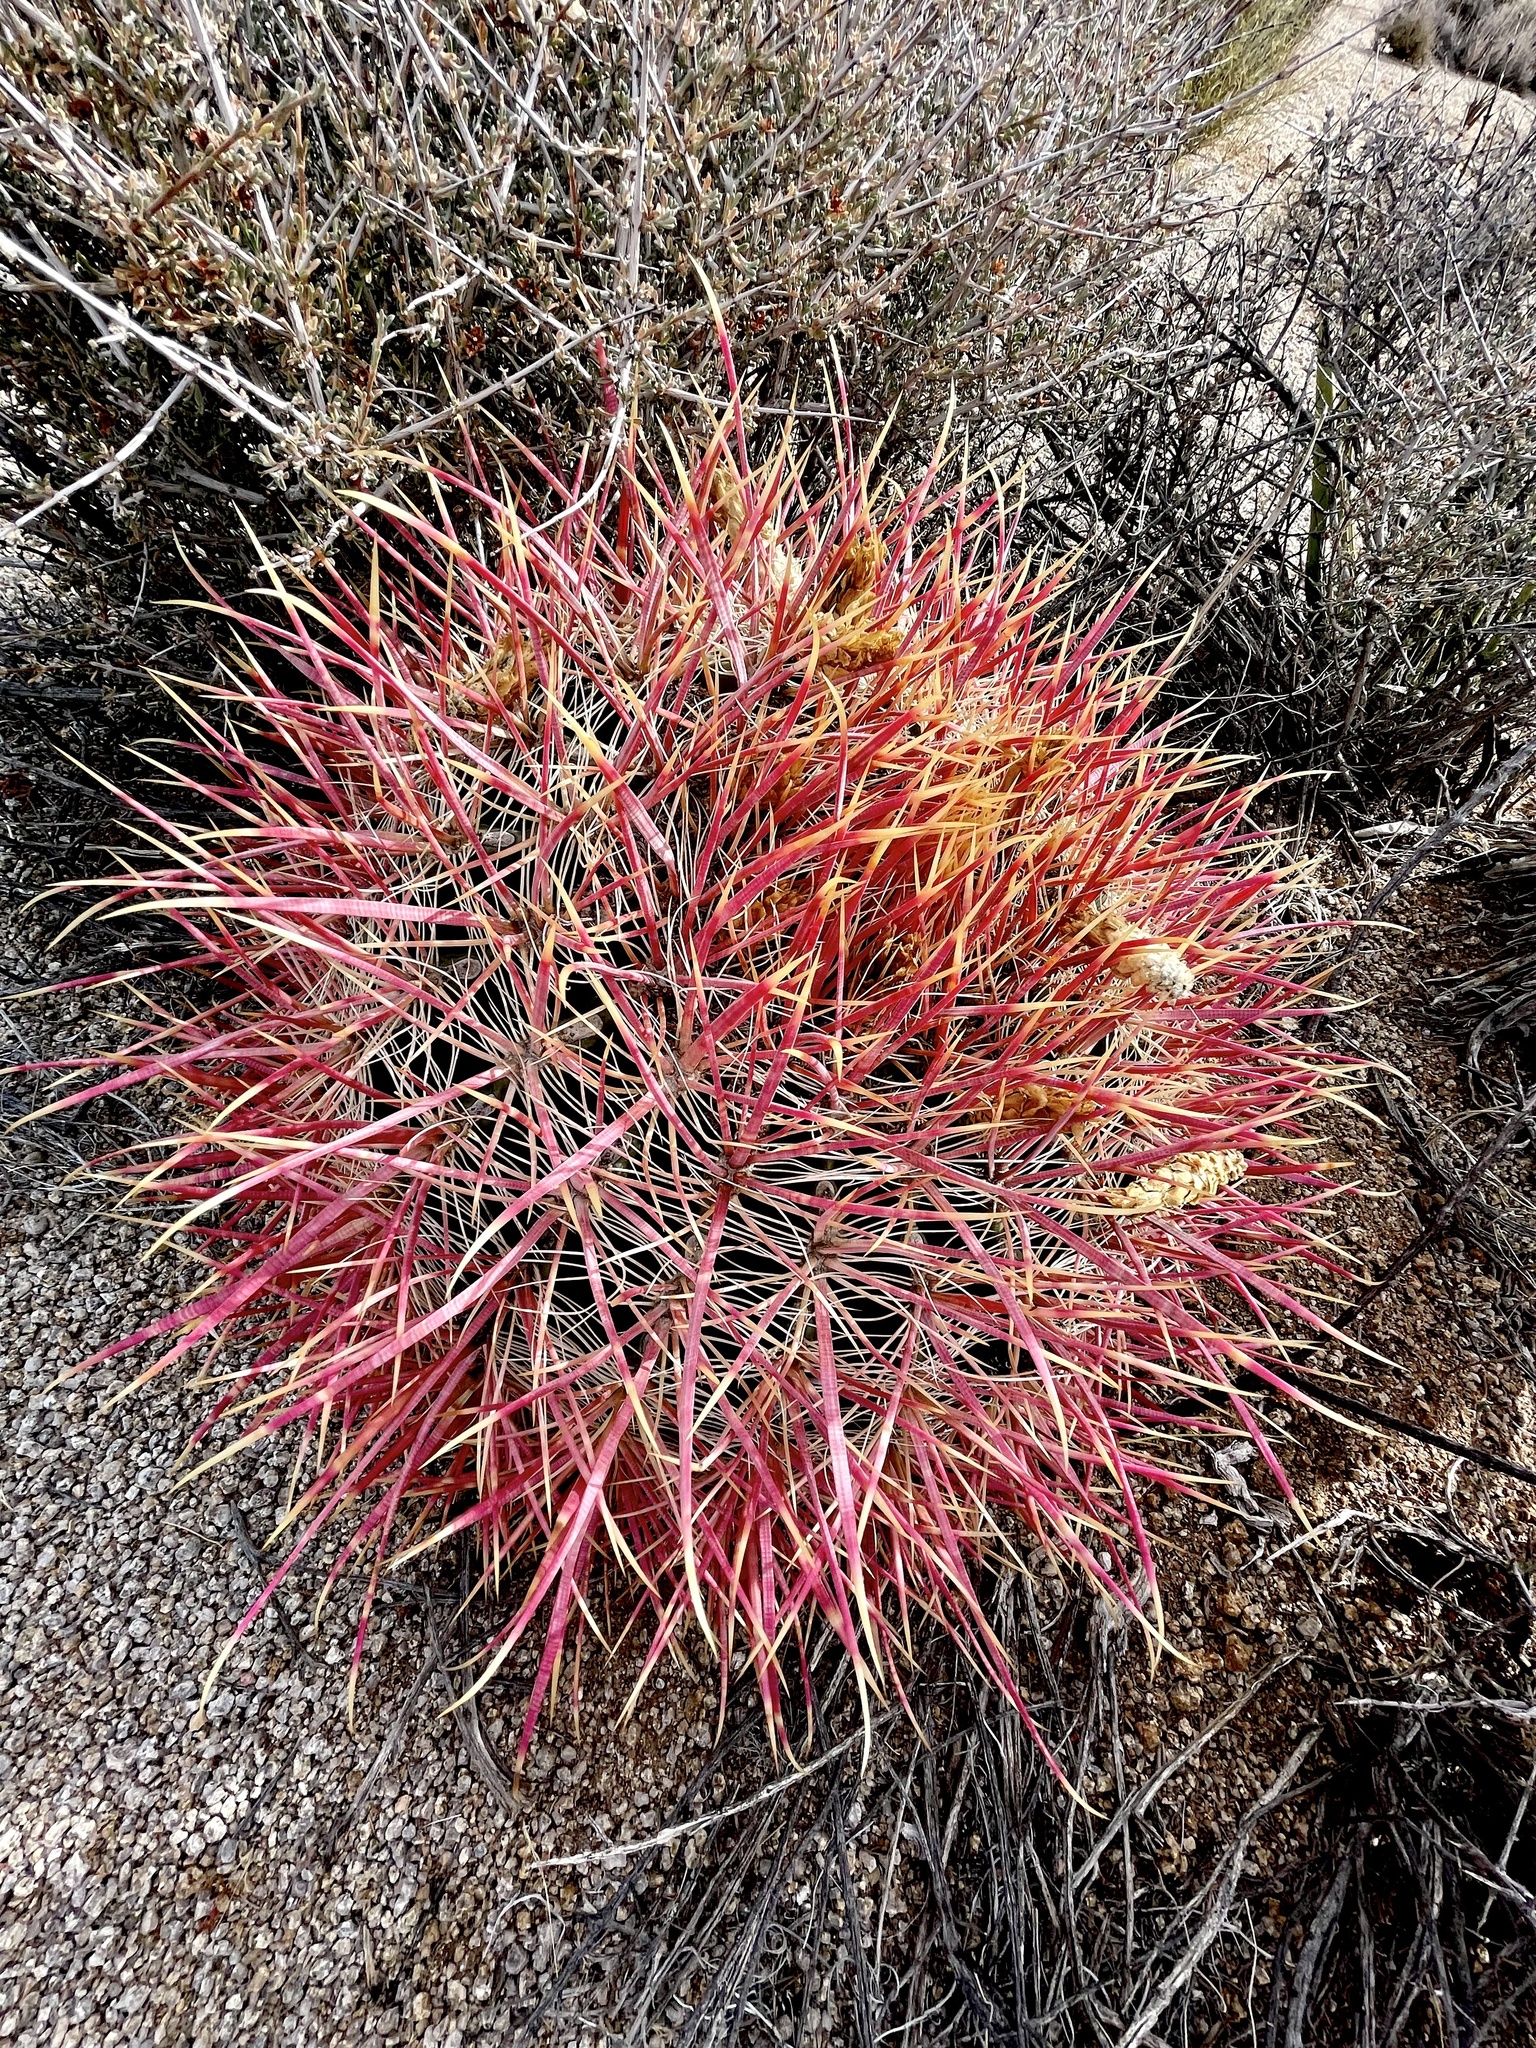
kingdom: Plantae
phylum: Tracheophyta
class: Magnoliopsida
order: Caryophyllales
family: Cactaceae
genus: Ferocactus
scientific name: Ferocactus cylindraceus
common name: California barrel cactus
